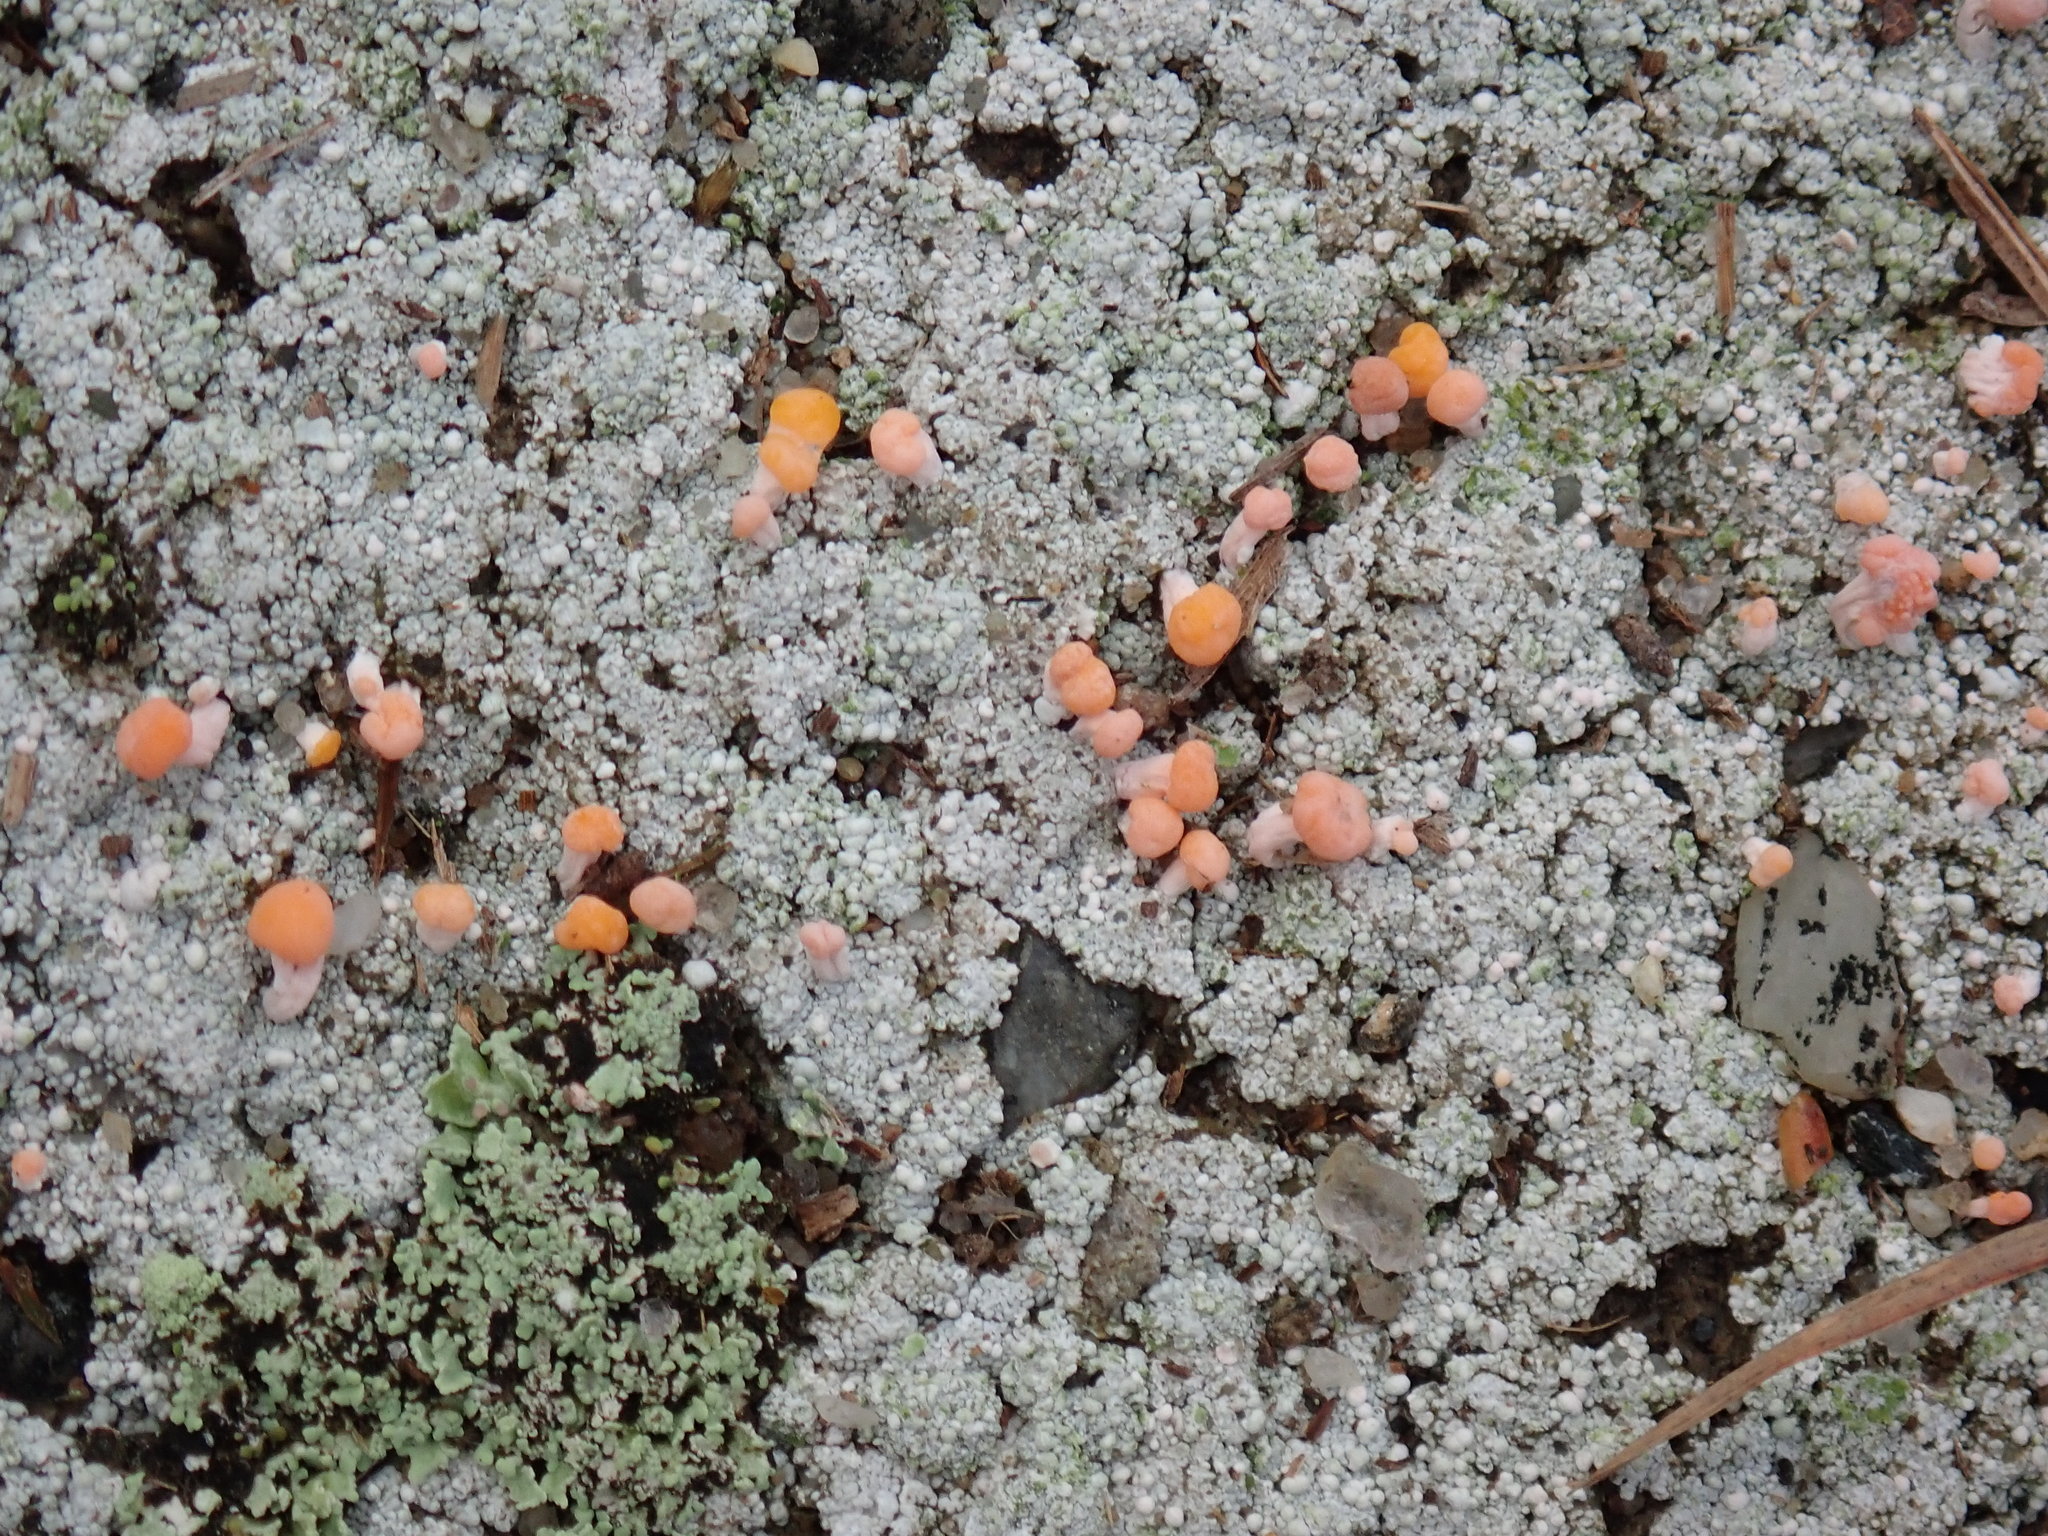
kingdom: Fungi
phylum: Ascomycota
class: Lecanoromycetes
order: Pertusariales
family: Icmadophilaceae
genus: Dibaeis
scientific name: Dibaeis baeomyces
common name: Pink earth lichen
